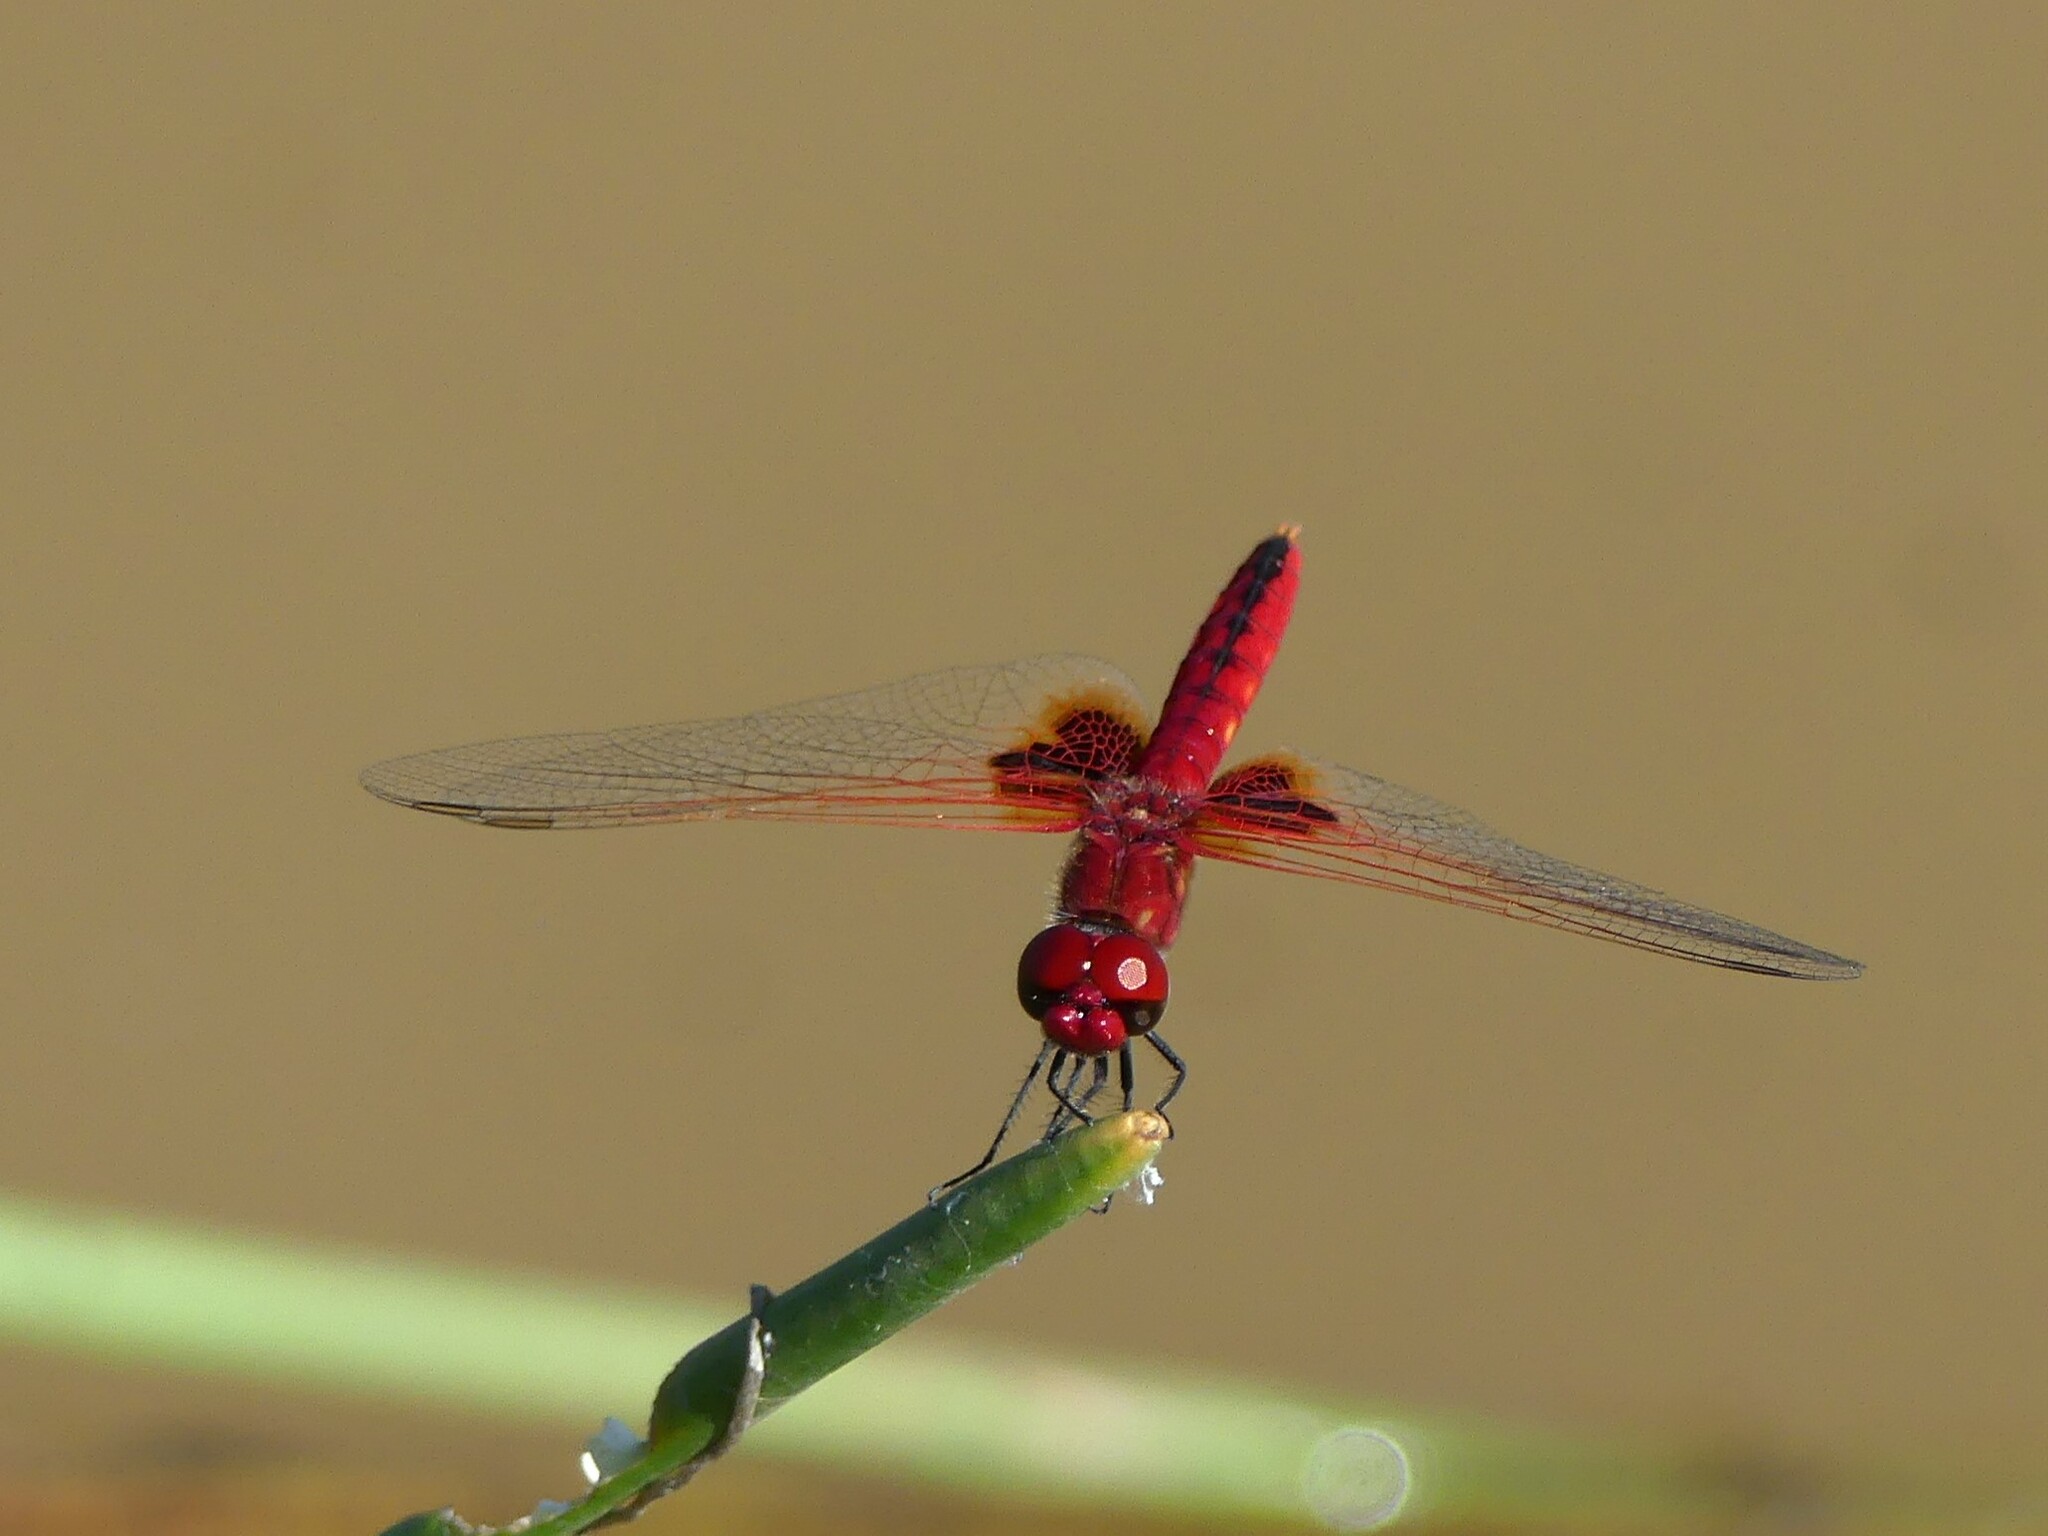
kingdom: Animalia
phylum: Arthropoda
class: Insecta
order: Odonata
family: Libellulidae
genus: Urothemis
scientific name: Urothemis assignata
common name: Red basker
